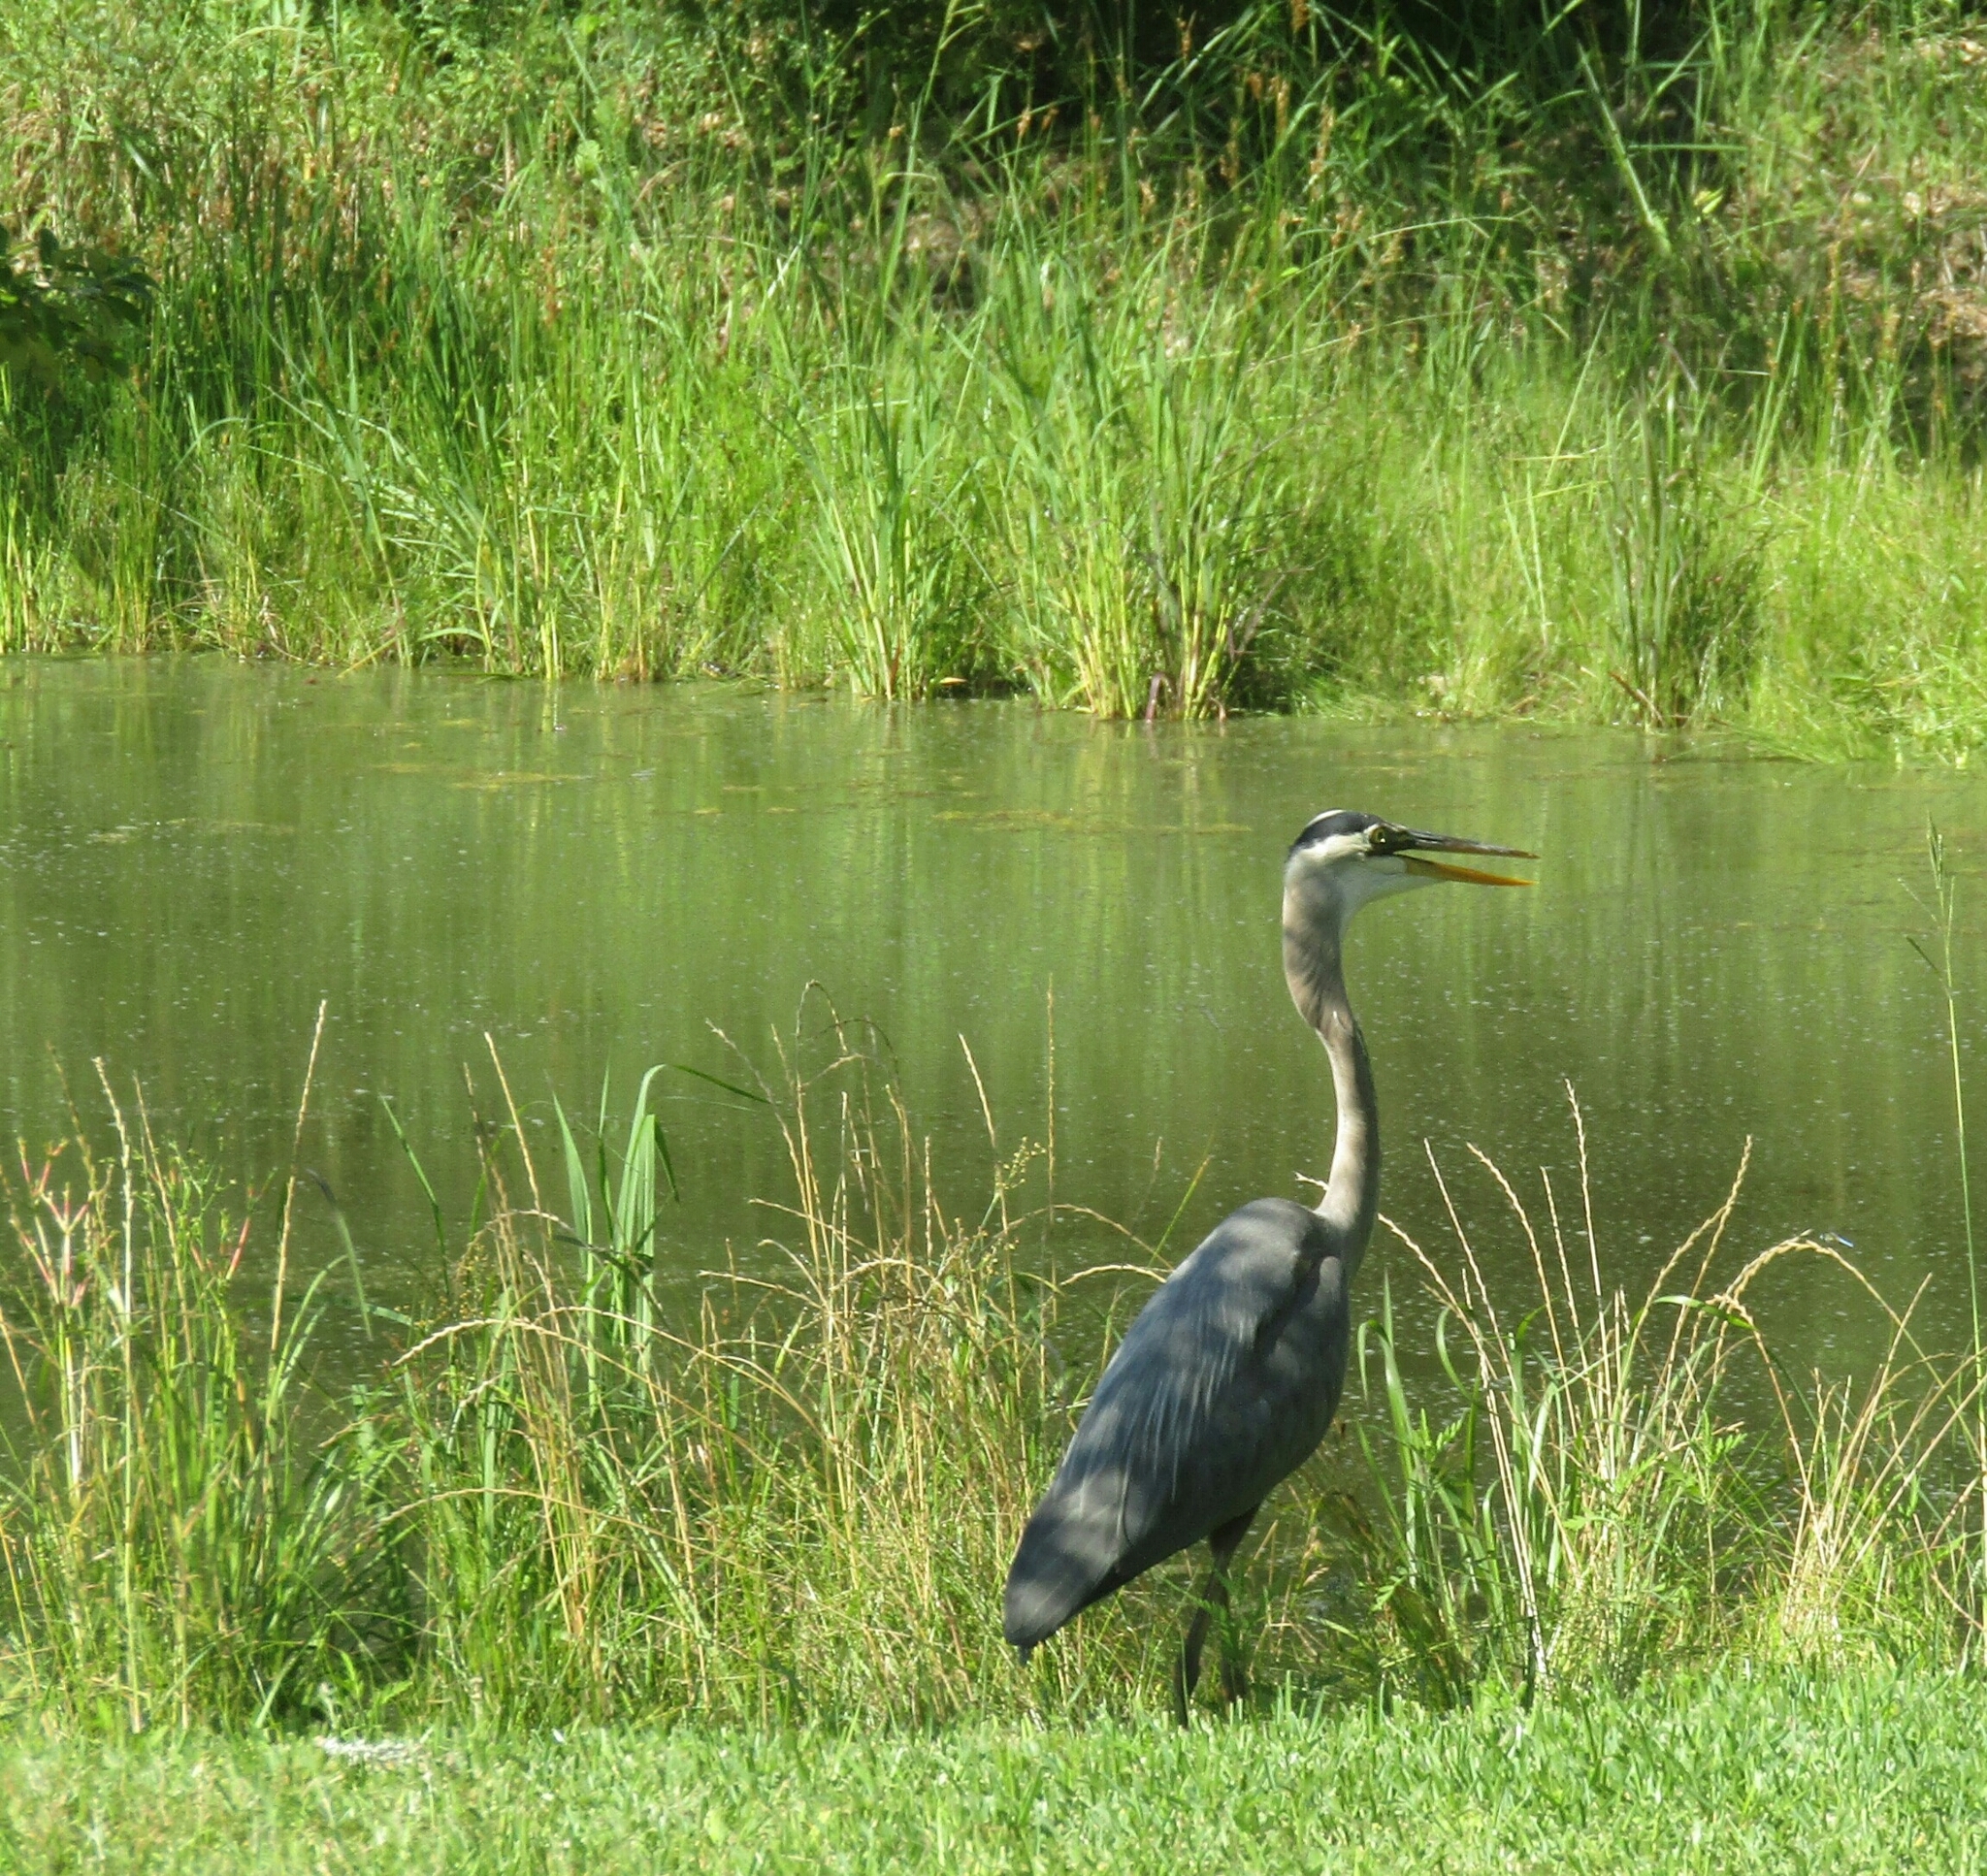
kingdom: Animalia
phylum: Chordata
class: Aves
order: Pelecaniformes
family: Ardeidae
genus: Ardea
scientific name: Ardea herodias
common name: Great blue heron
